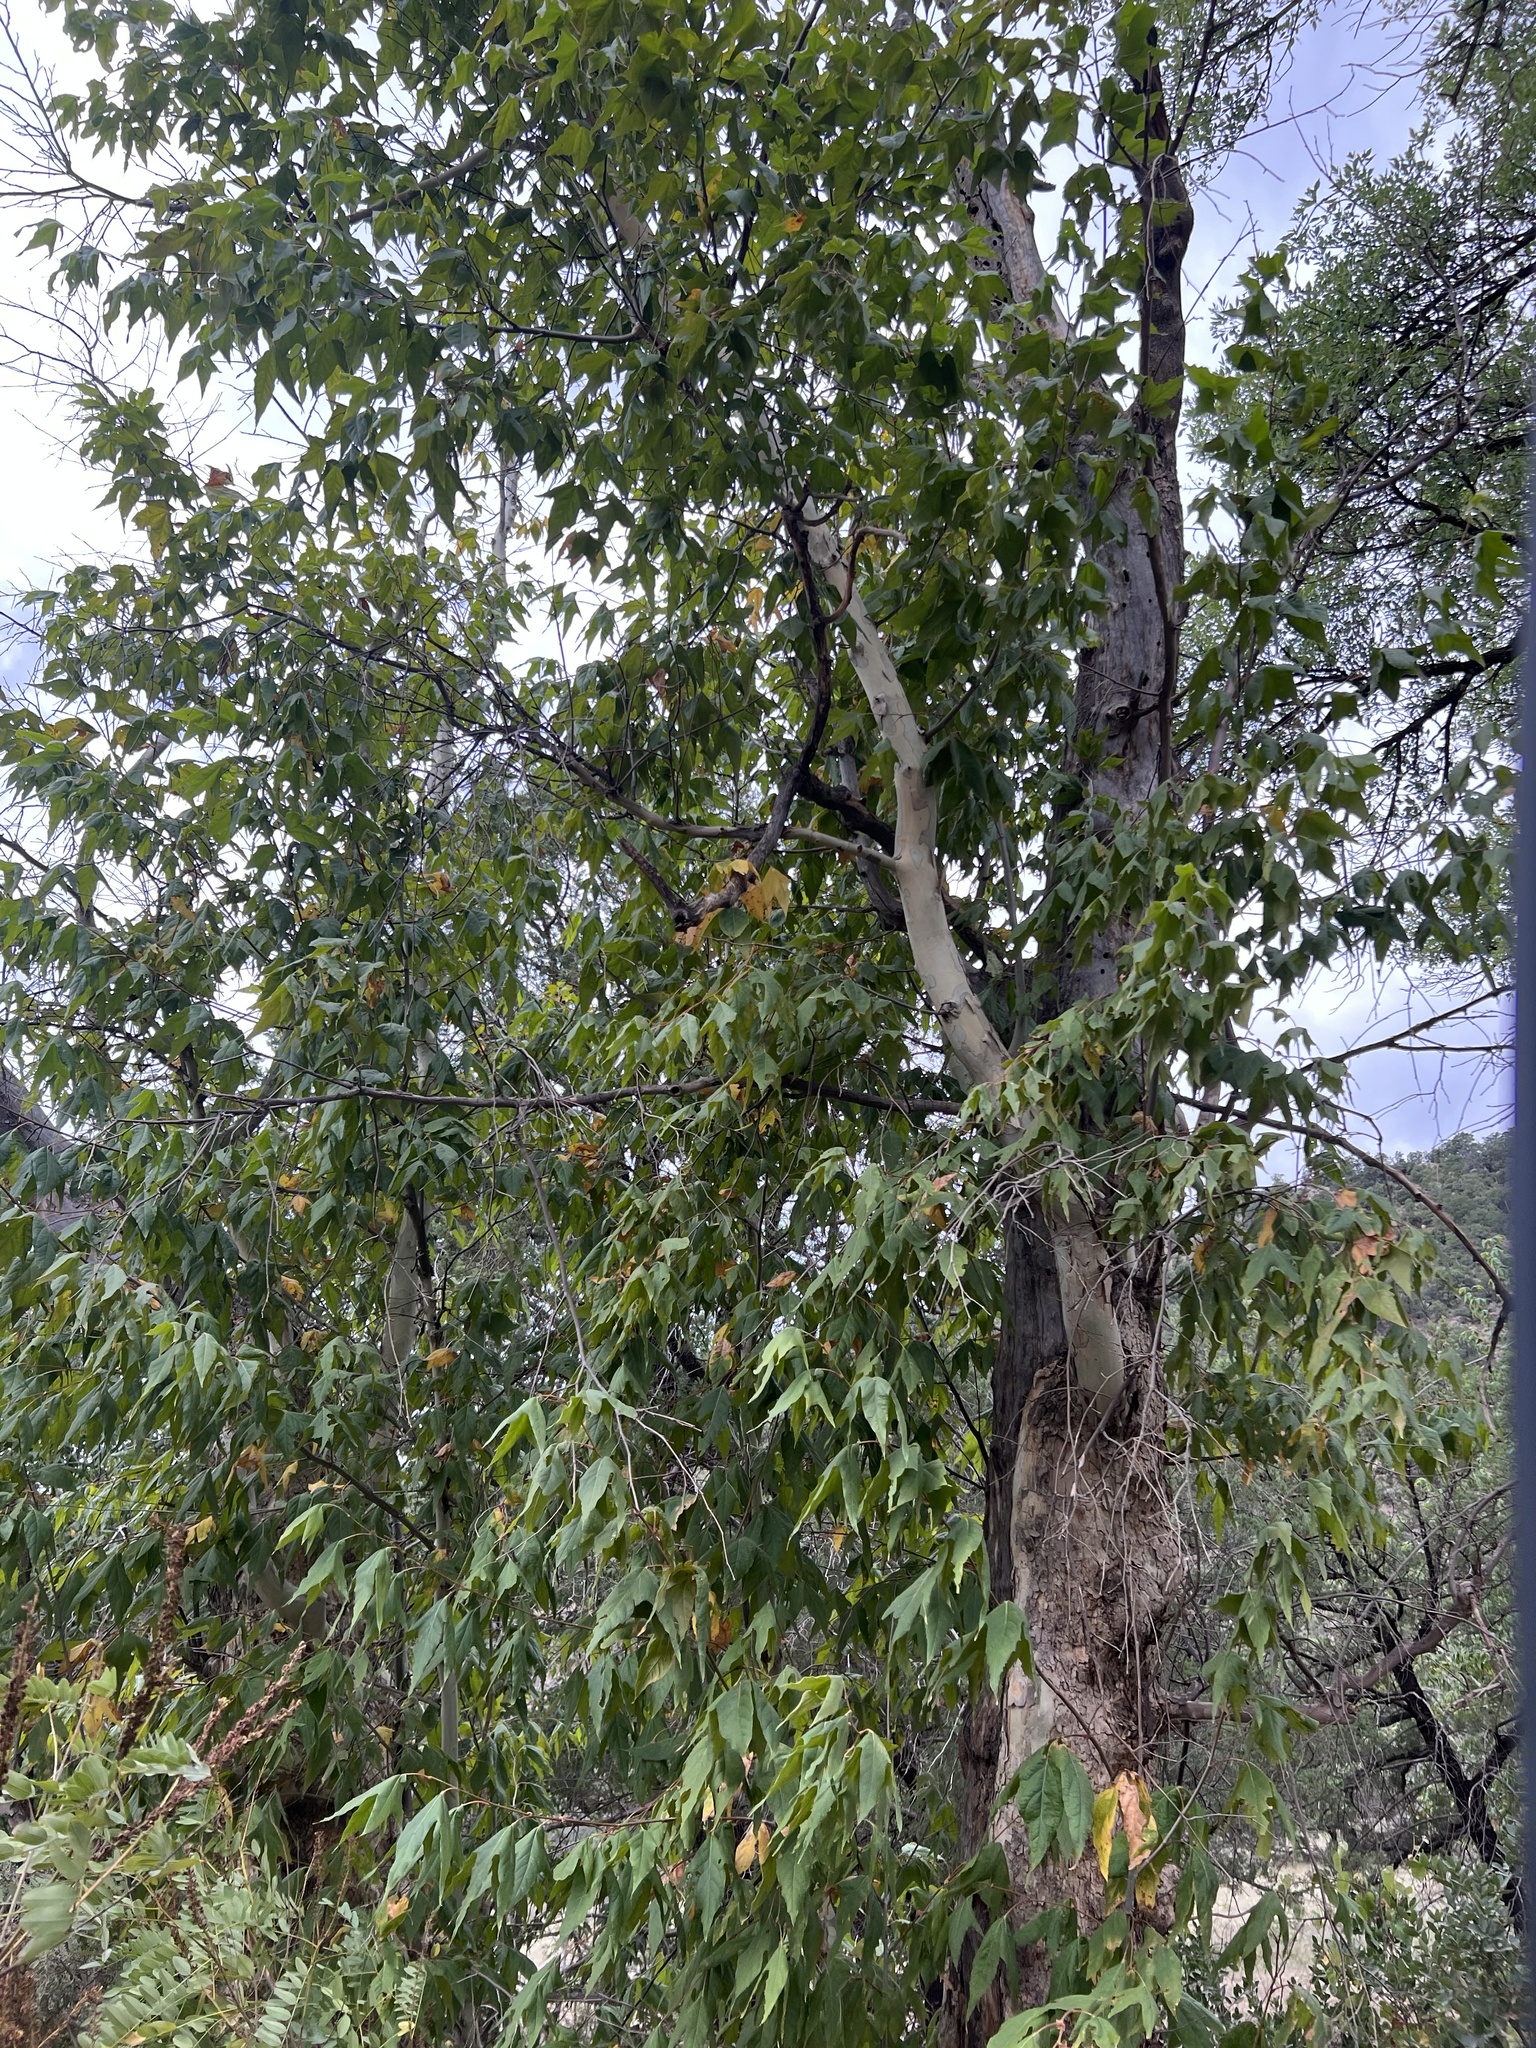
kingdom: Plantae
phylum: Tracheophyta
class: Magnoliopsida
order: Proteales
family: Platanaceae
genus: Platanus
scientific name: Platanus wrightii
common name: Arizona sycamore
